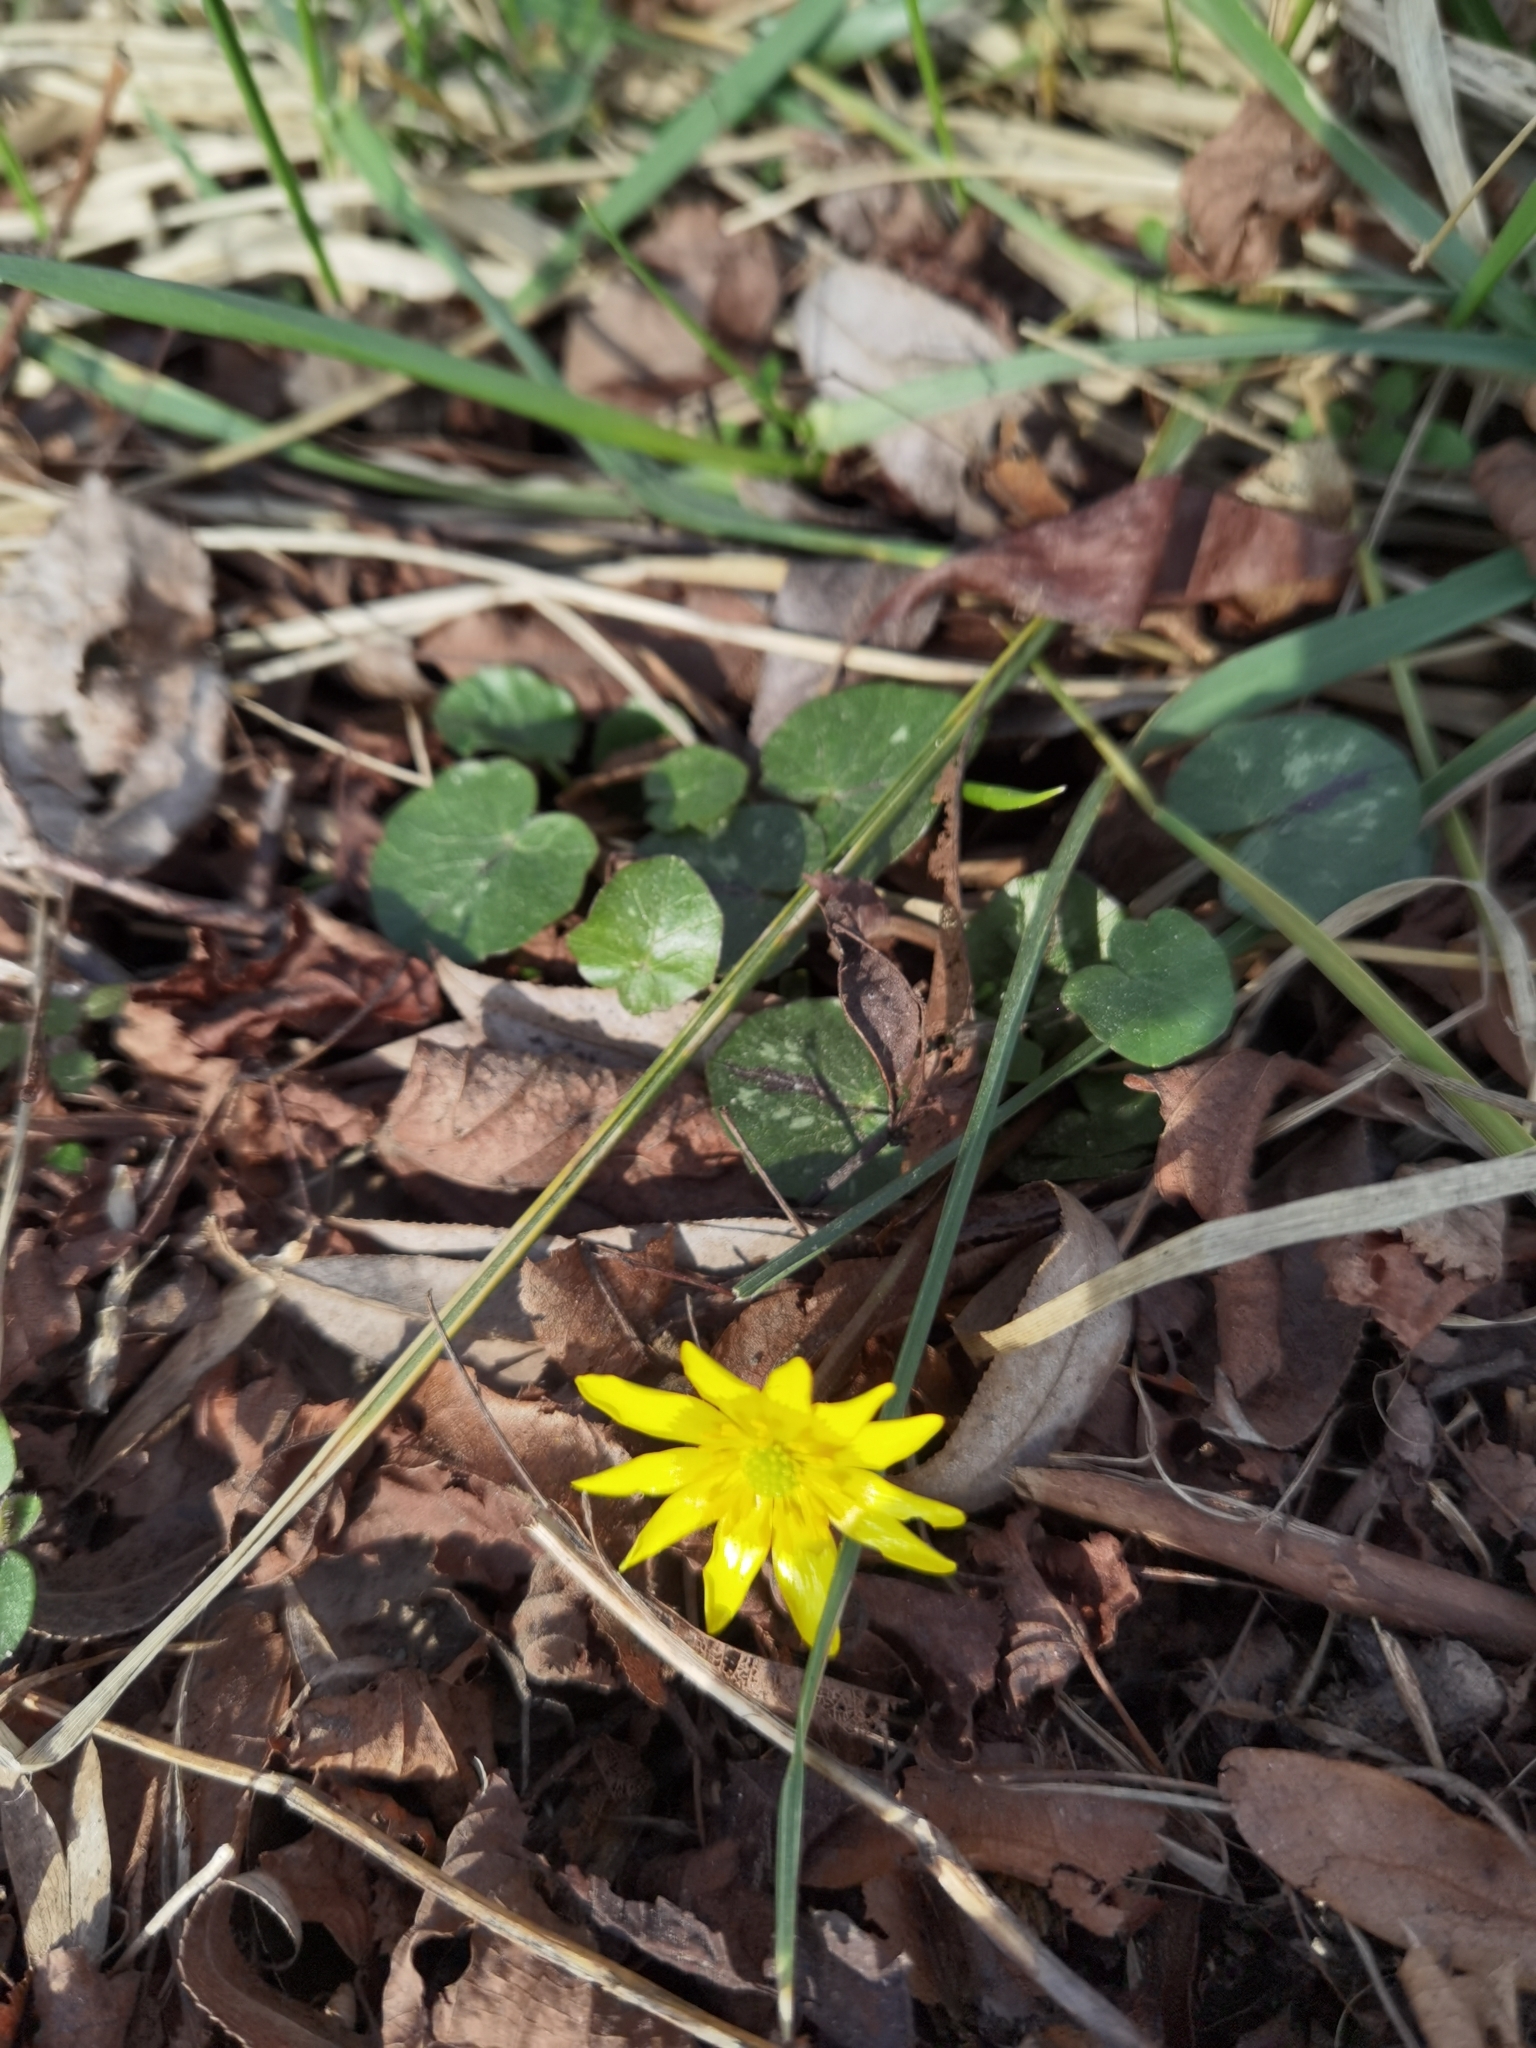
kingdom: Plantae
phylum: Tracheophyta
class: Magnoliopsida
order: Ranunculales
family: Ranunculaceae
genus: Ficaria
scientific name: Ficaria verna
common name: Lesser celandine
